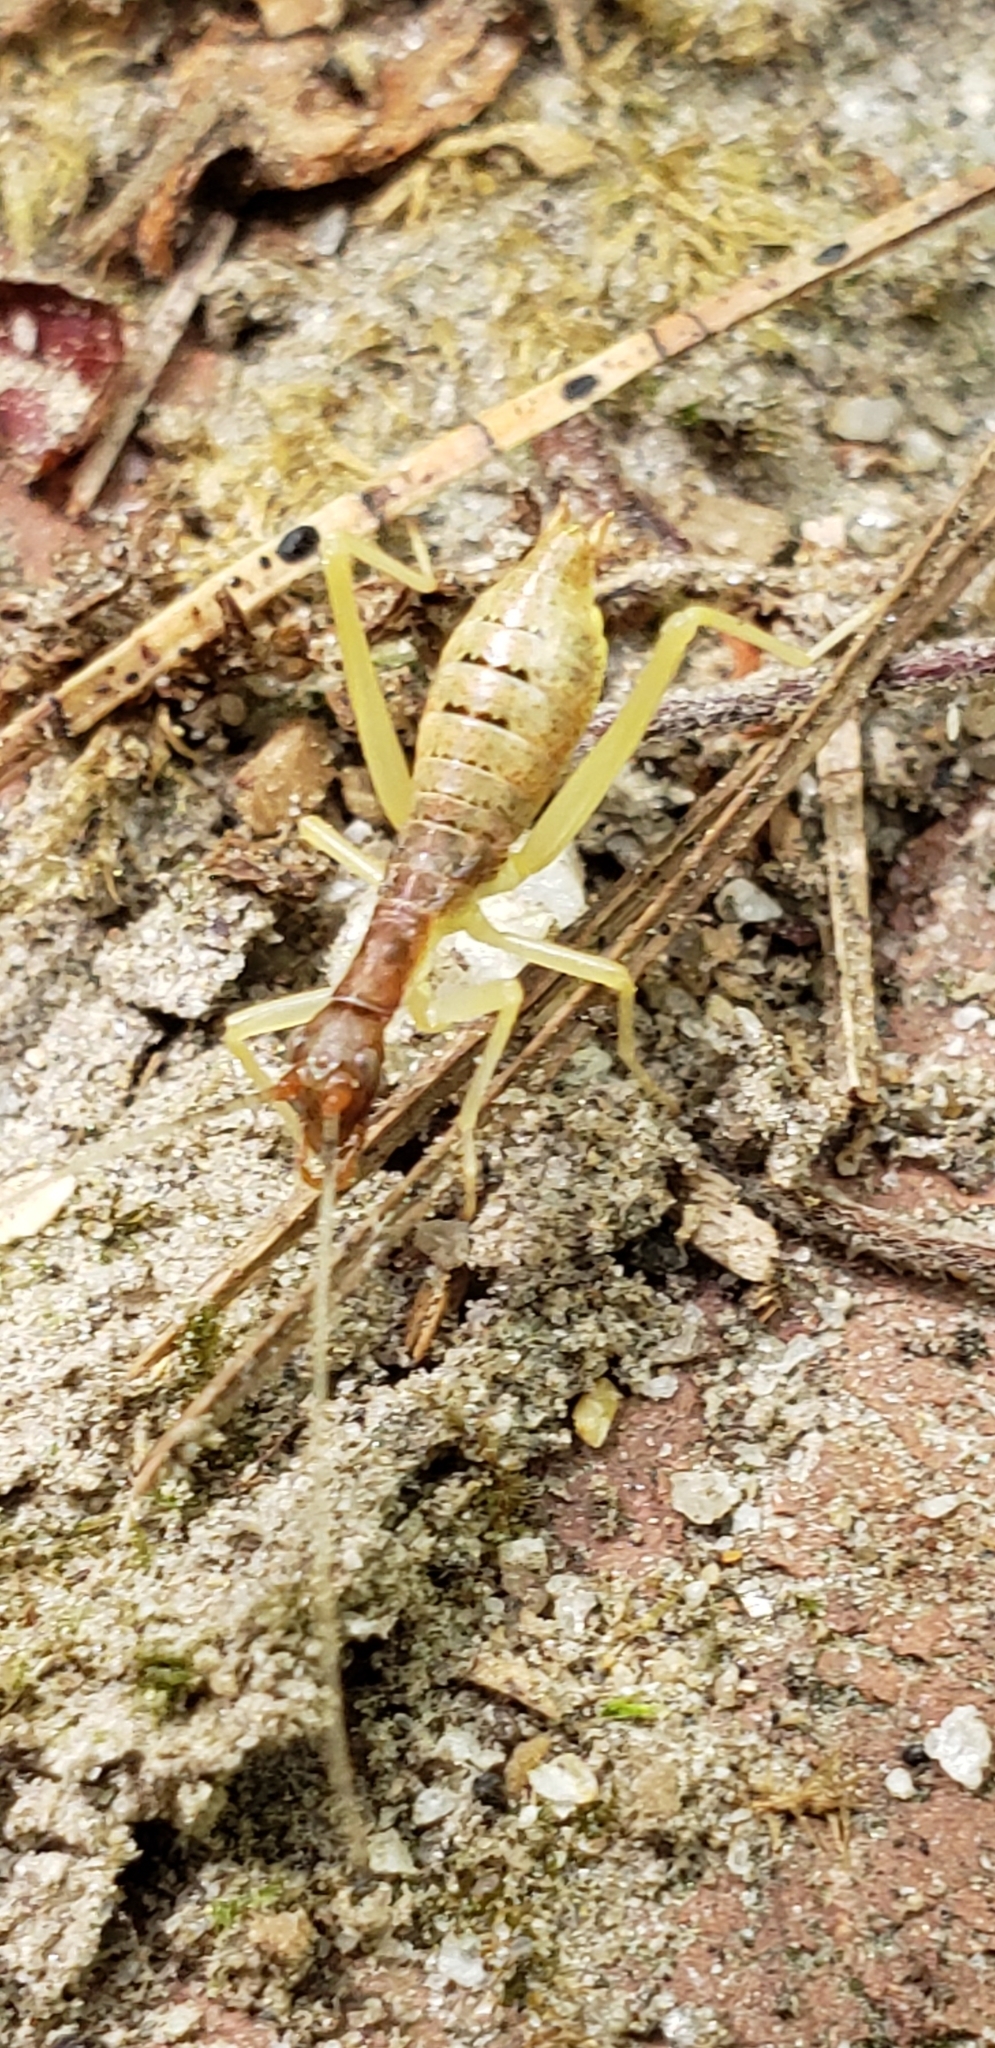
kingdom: Animalia
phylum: Arthropoda
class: Insecta
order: Orthoptera
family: Gryllidae
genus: Neoxabea
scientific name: Neoxabea bipunctata
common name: Two-spotted tree cricket
